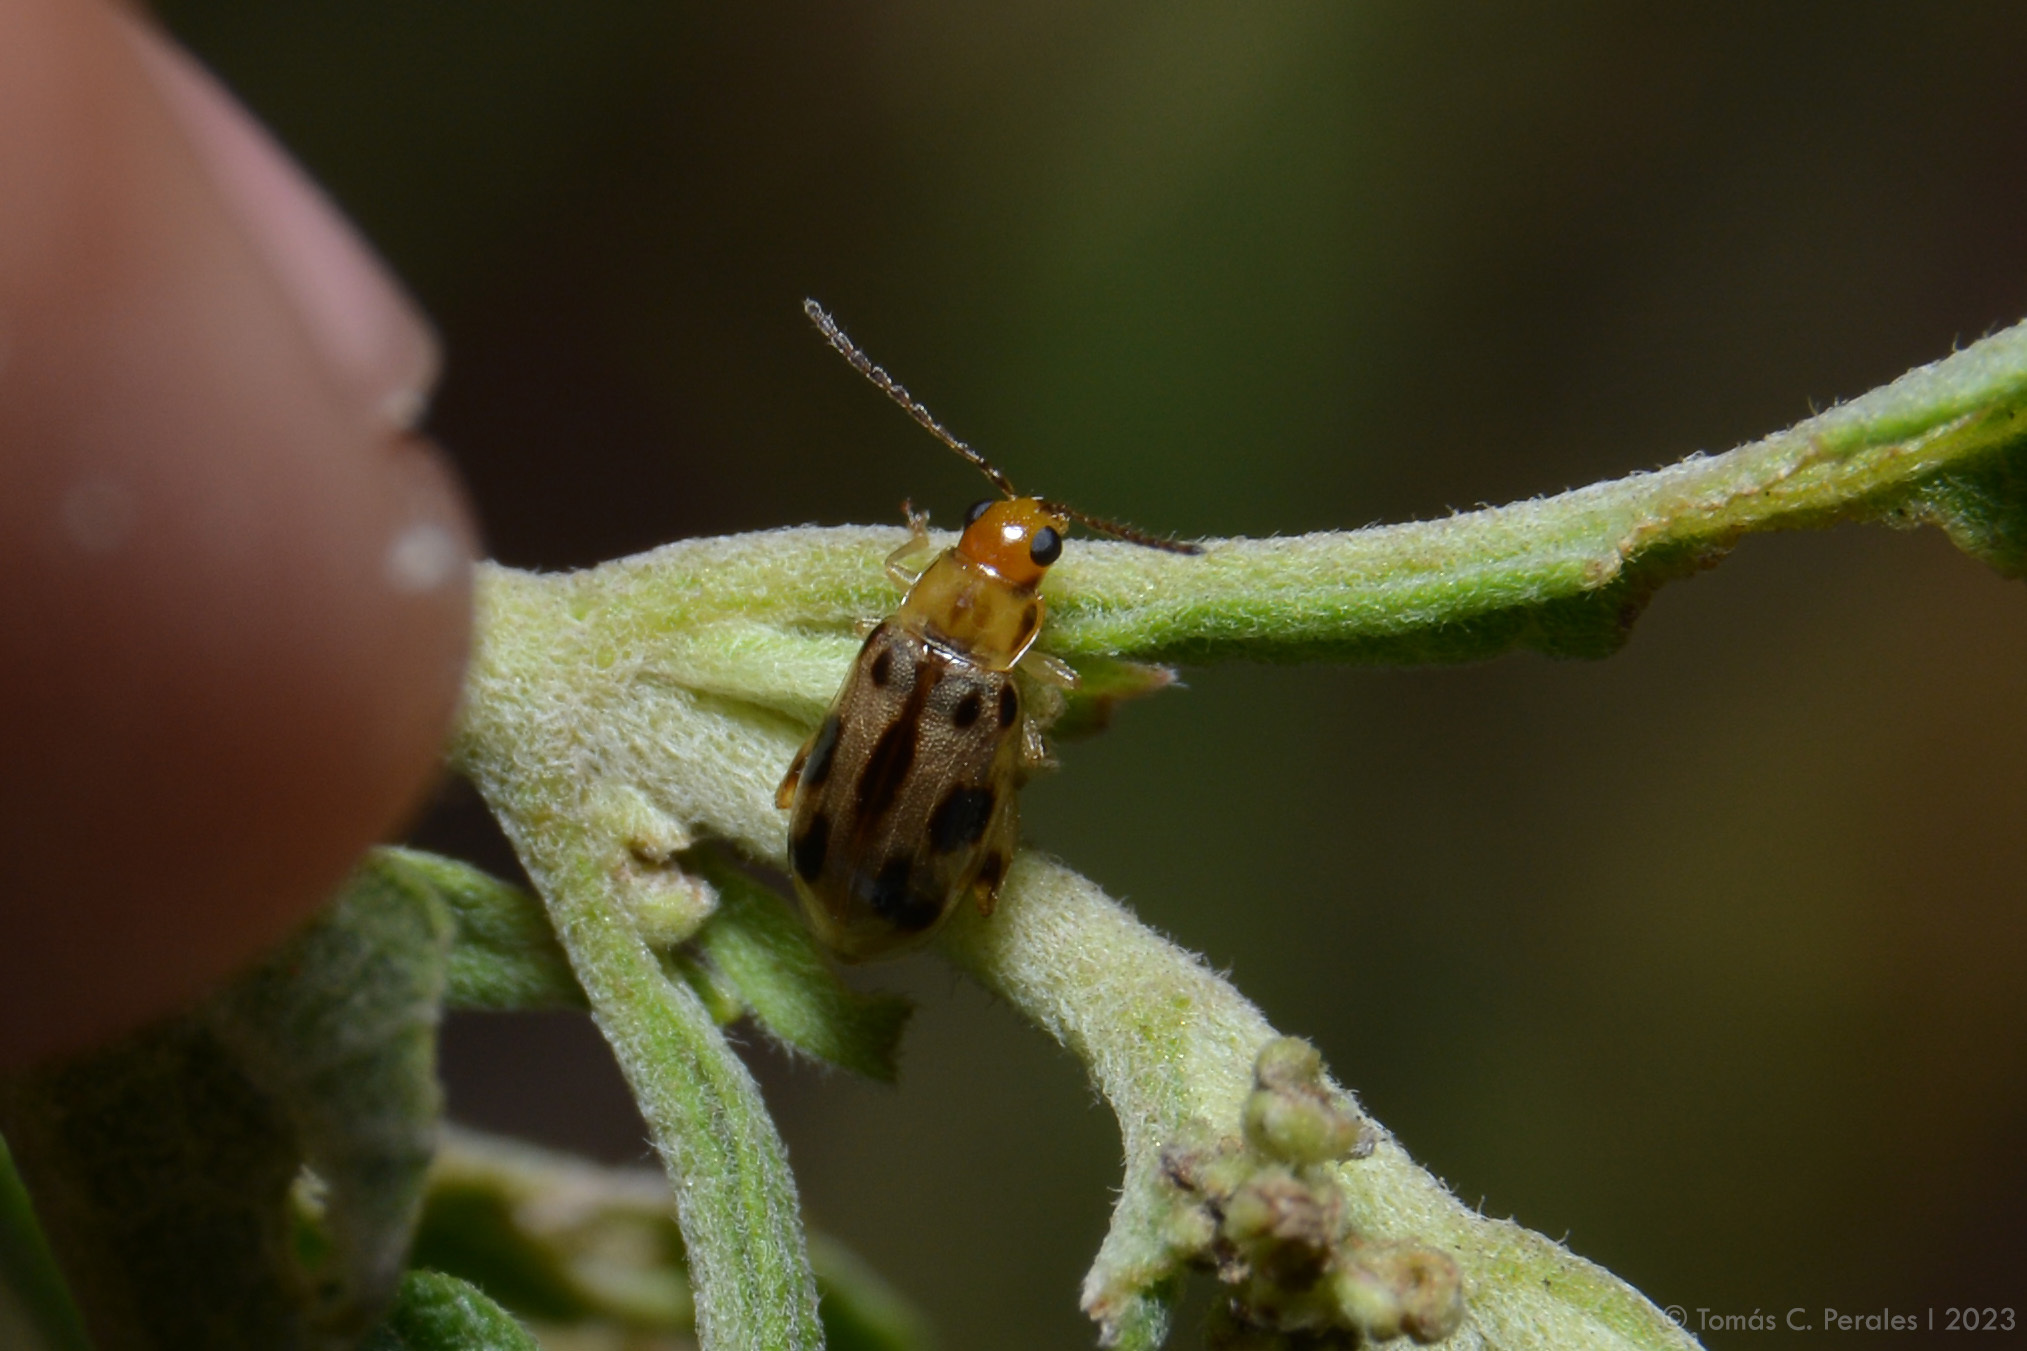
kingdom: Animalia
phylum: Arthropoda
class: Insecta
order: Coleoptera
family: Chrysomelidae
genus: Systena
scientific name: Systena
